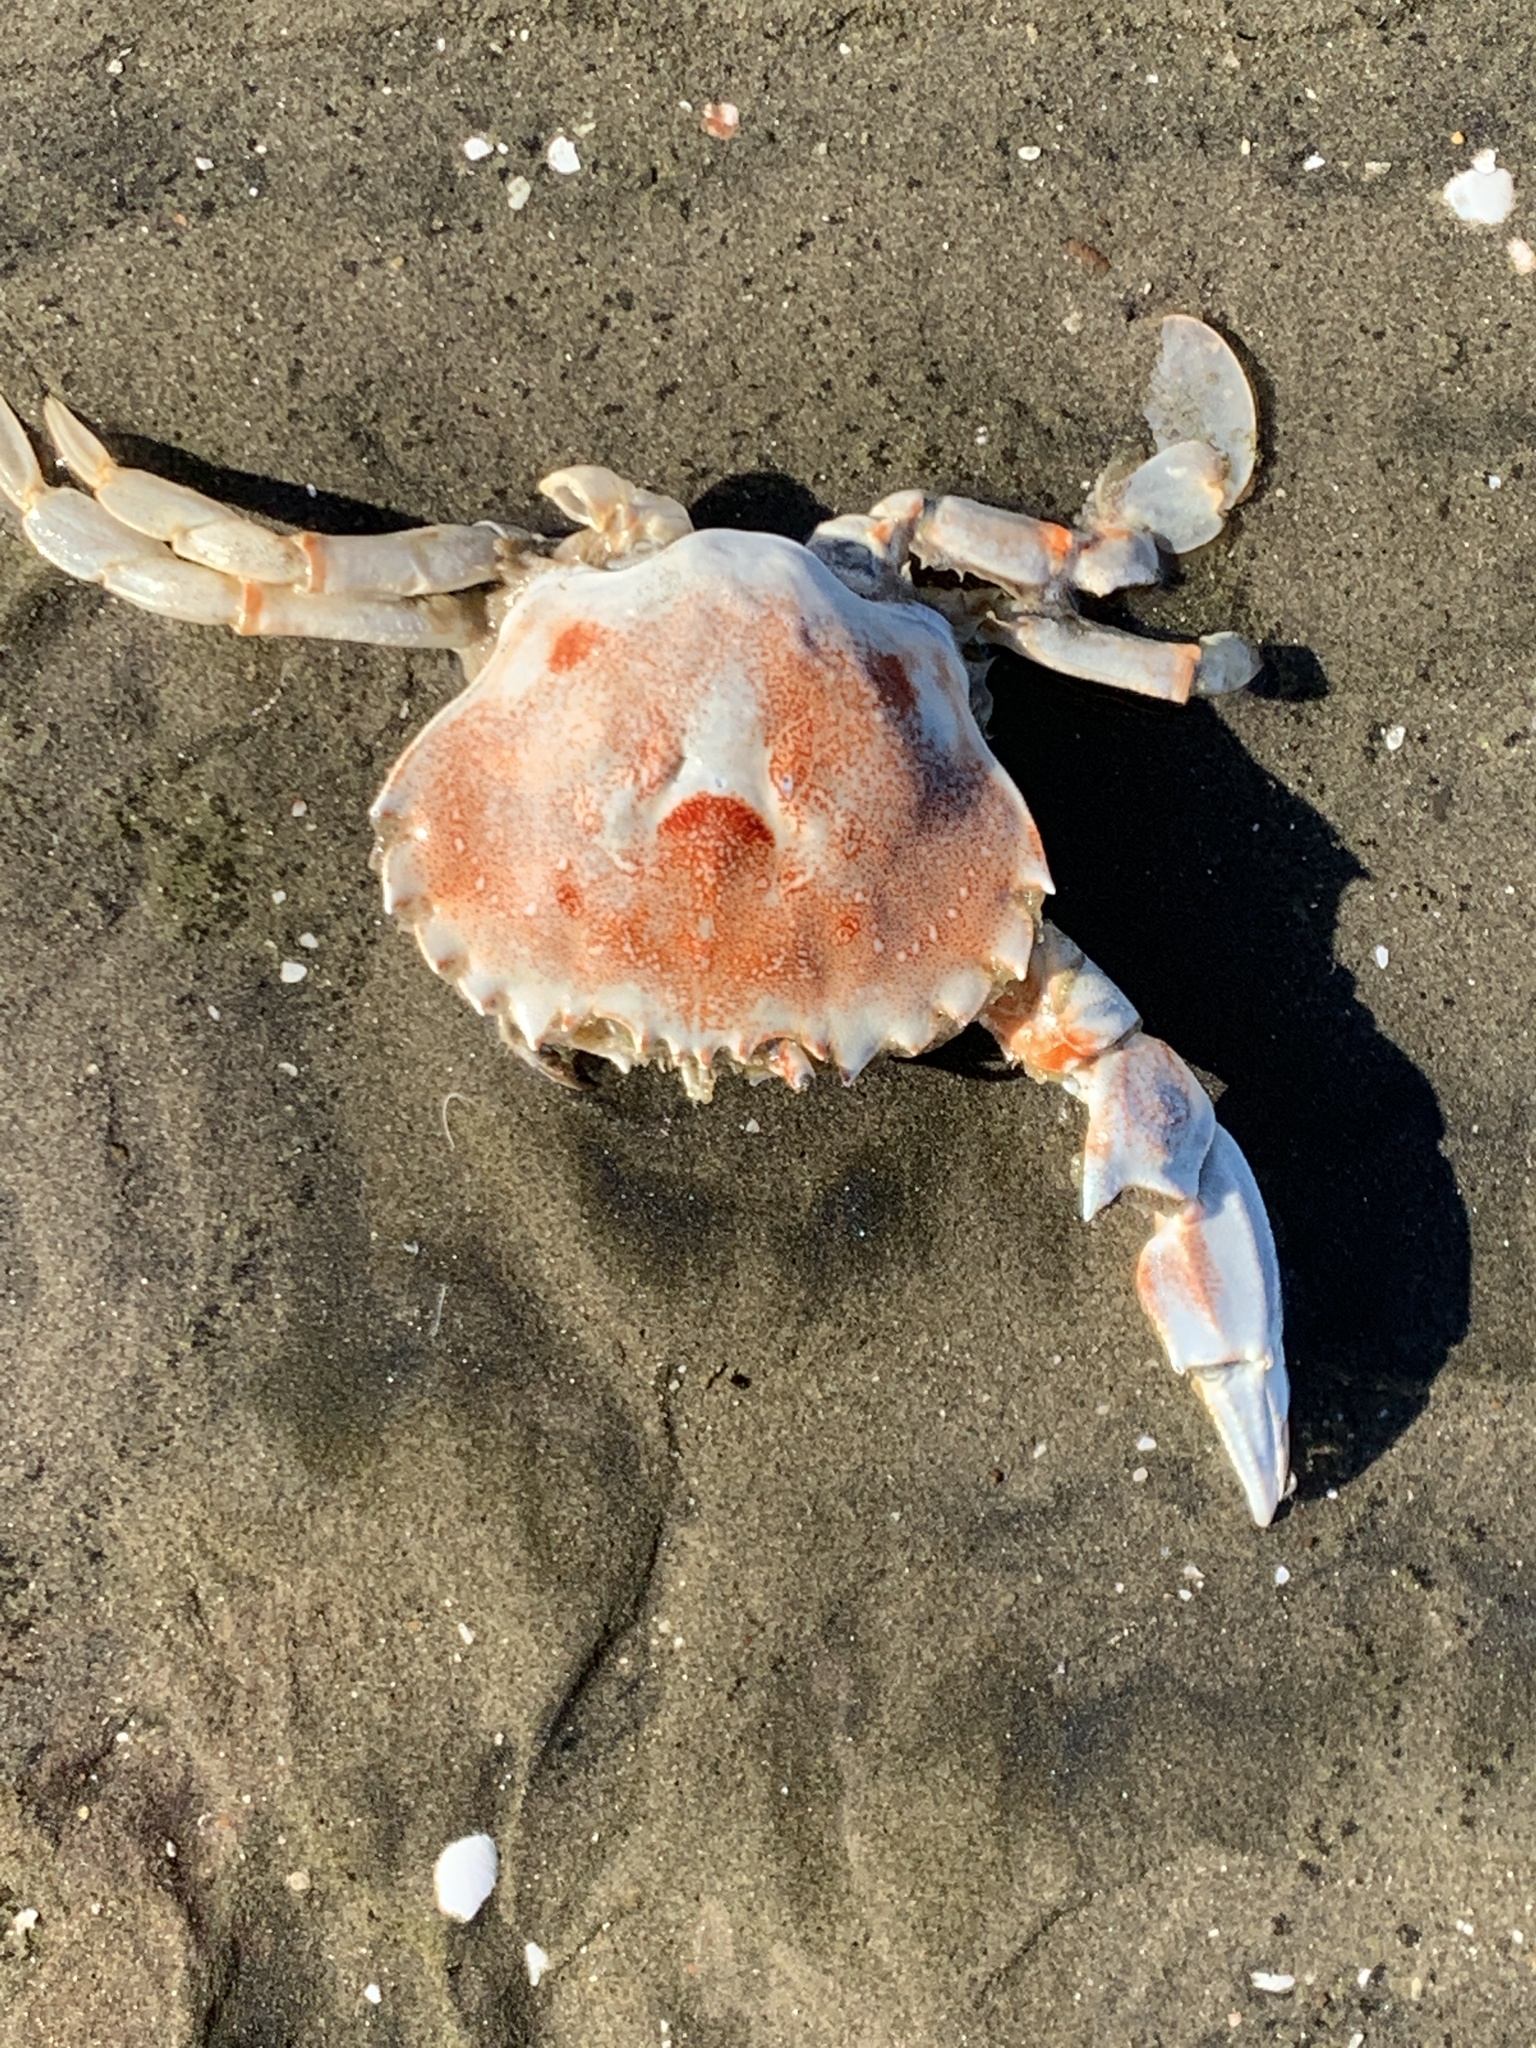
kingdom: Animalia
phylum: Arthropoda
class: Malacostraca
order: Decapoda
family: Ovalipidae
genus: Ovalipes
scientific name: Ovalipes trimaculatus
